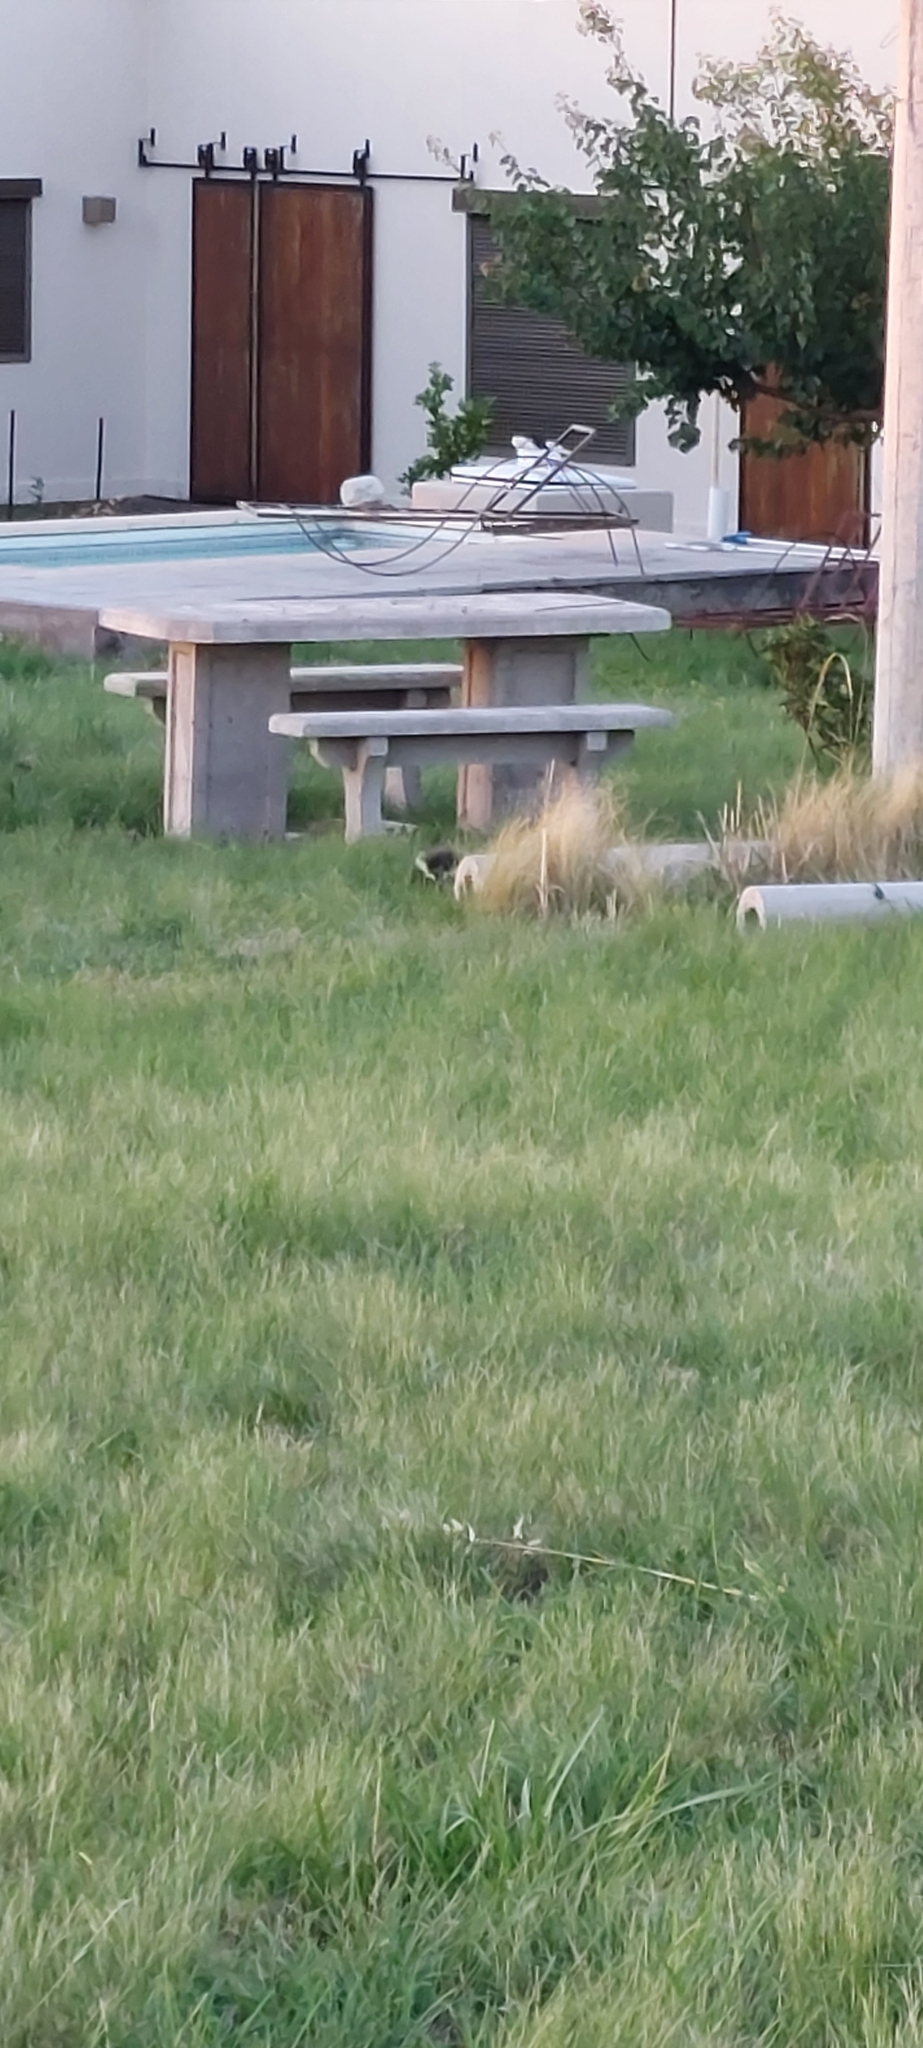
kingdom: Animalia
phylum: Chordata
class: Mammalia
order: Carnivora
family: Mephitidae
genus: Conepatus
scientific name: Conepatus chinga
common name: Molina's hog-nosed skunk
